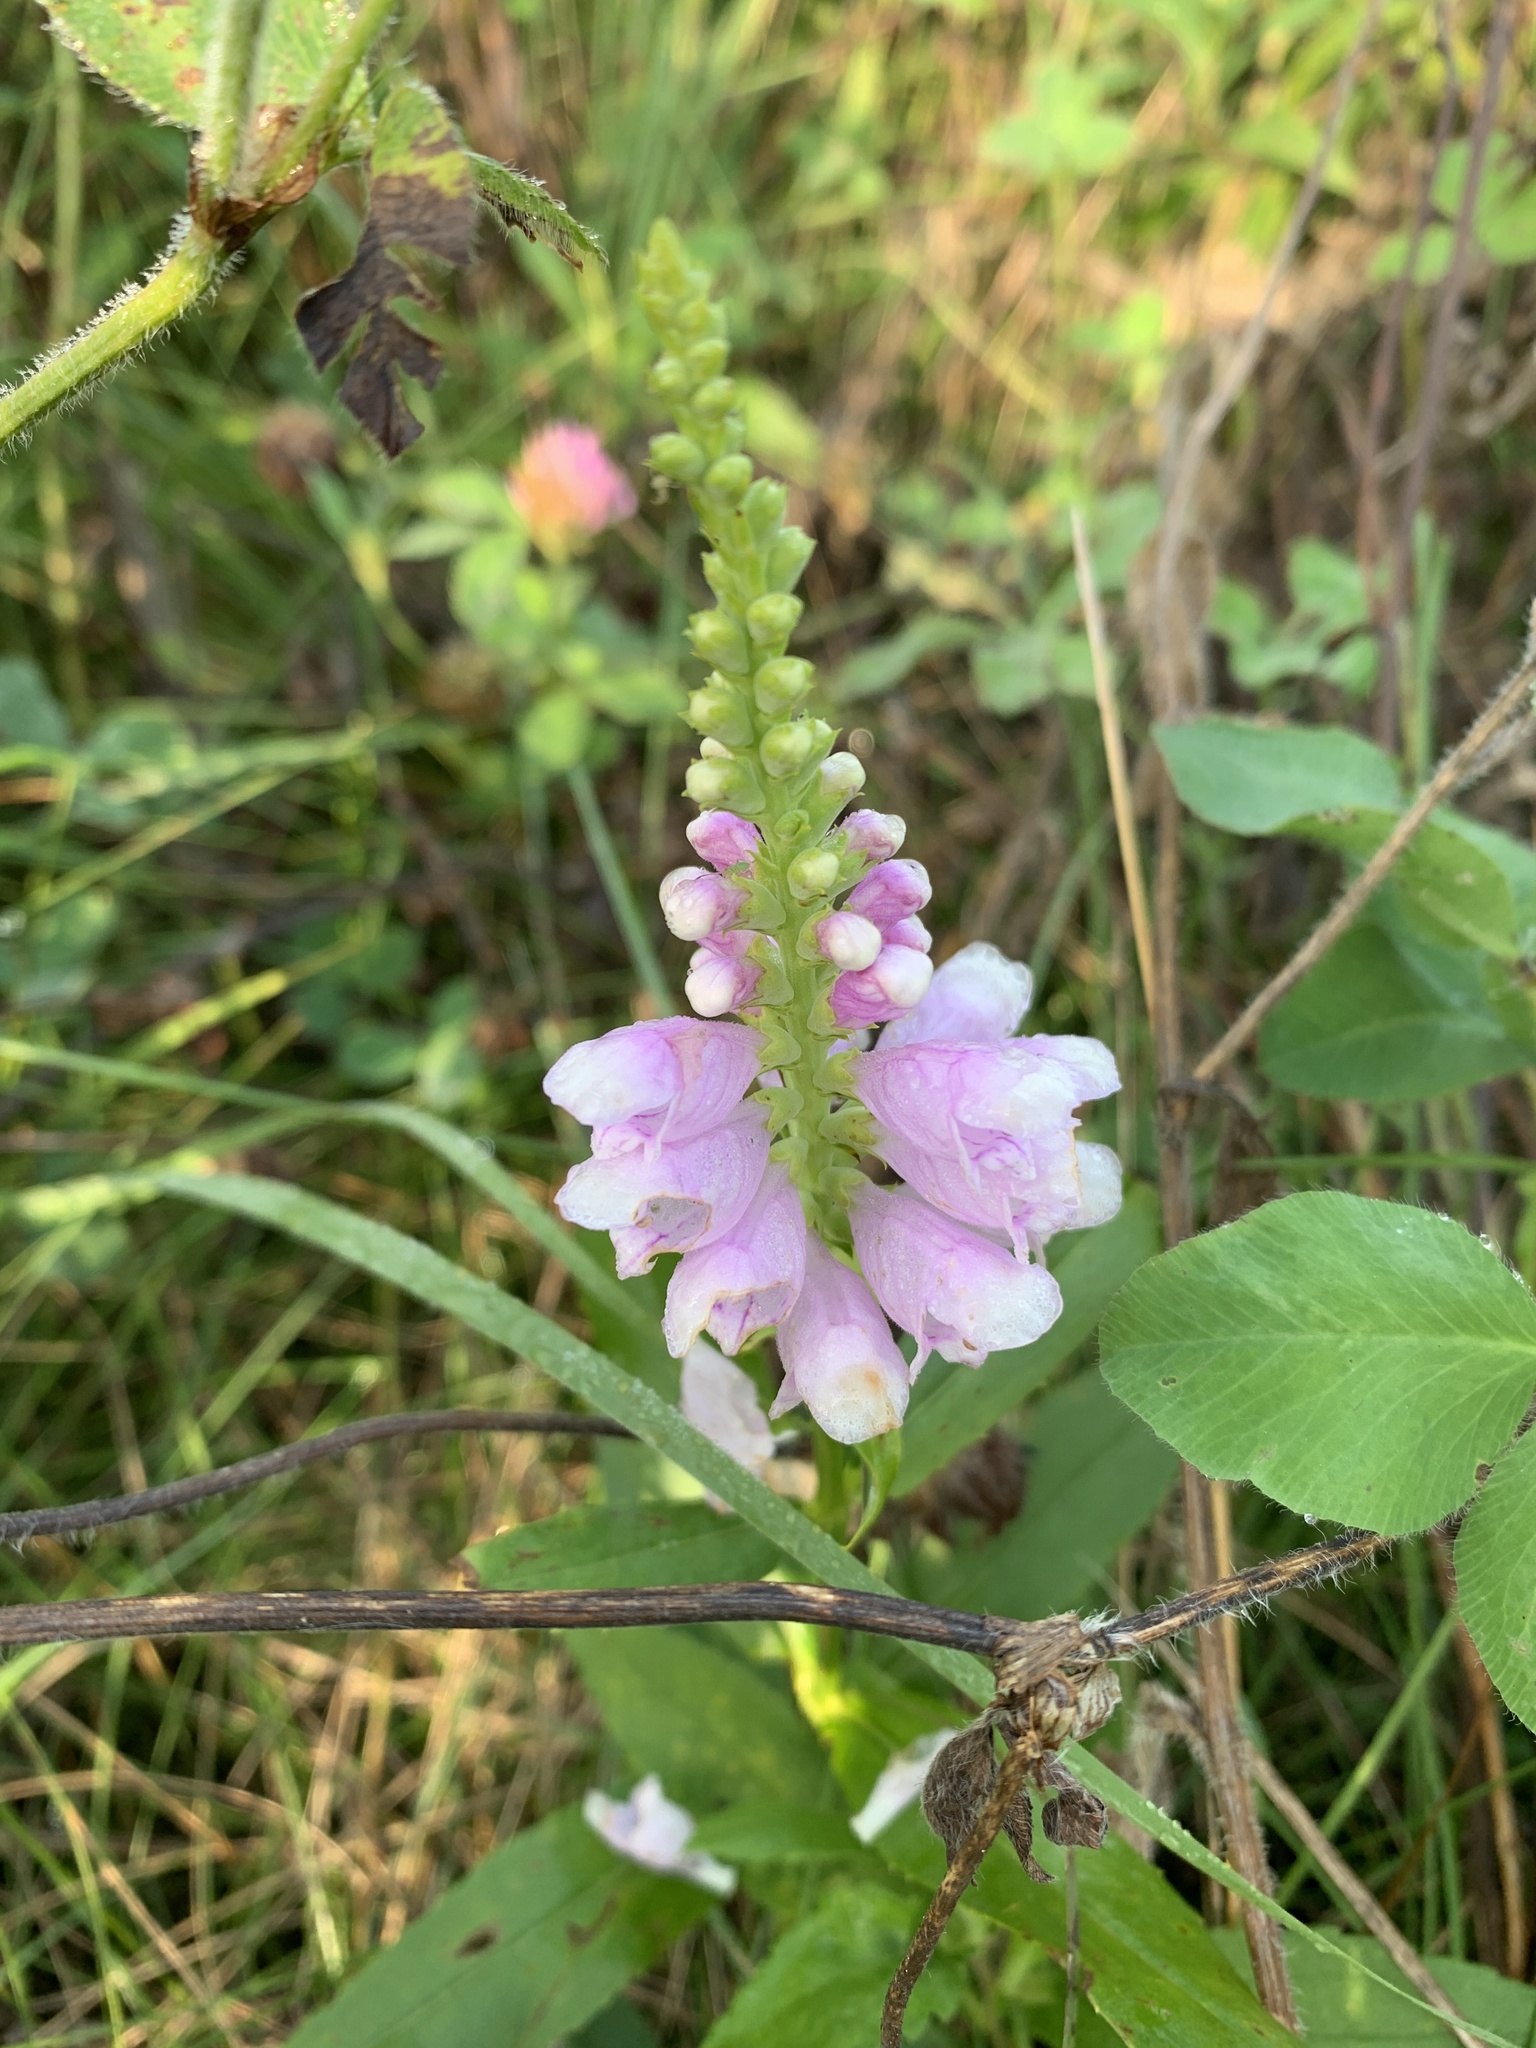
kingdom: Plantae
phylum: Tracheophyta
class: Magnoliopsida
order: Lamiales
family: Lamiaceae
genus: Physostegia
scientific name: Physostegia virginiana
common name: Obedient-plant
